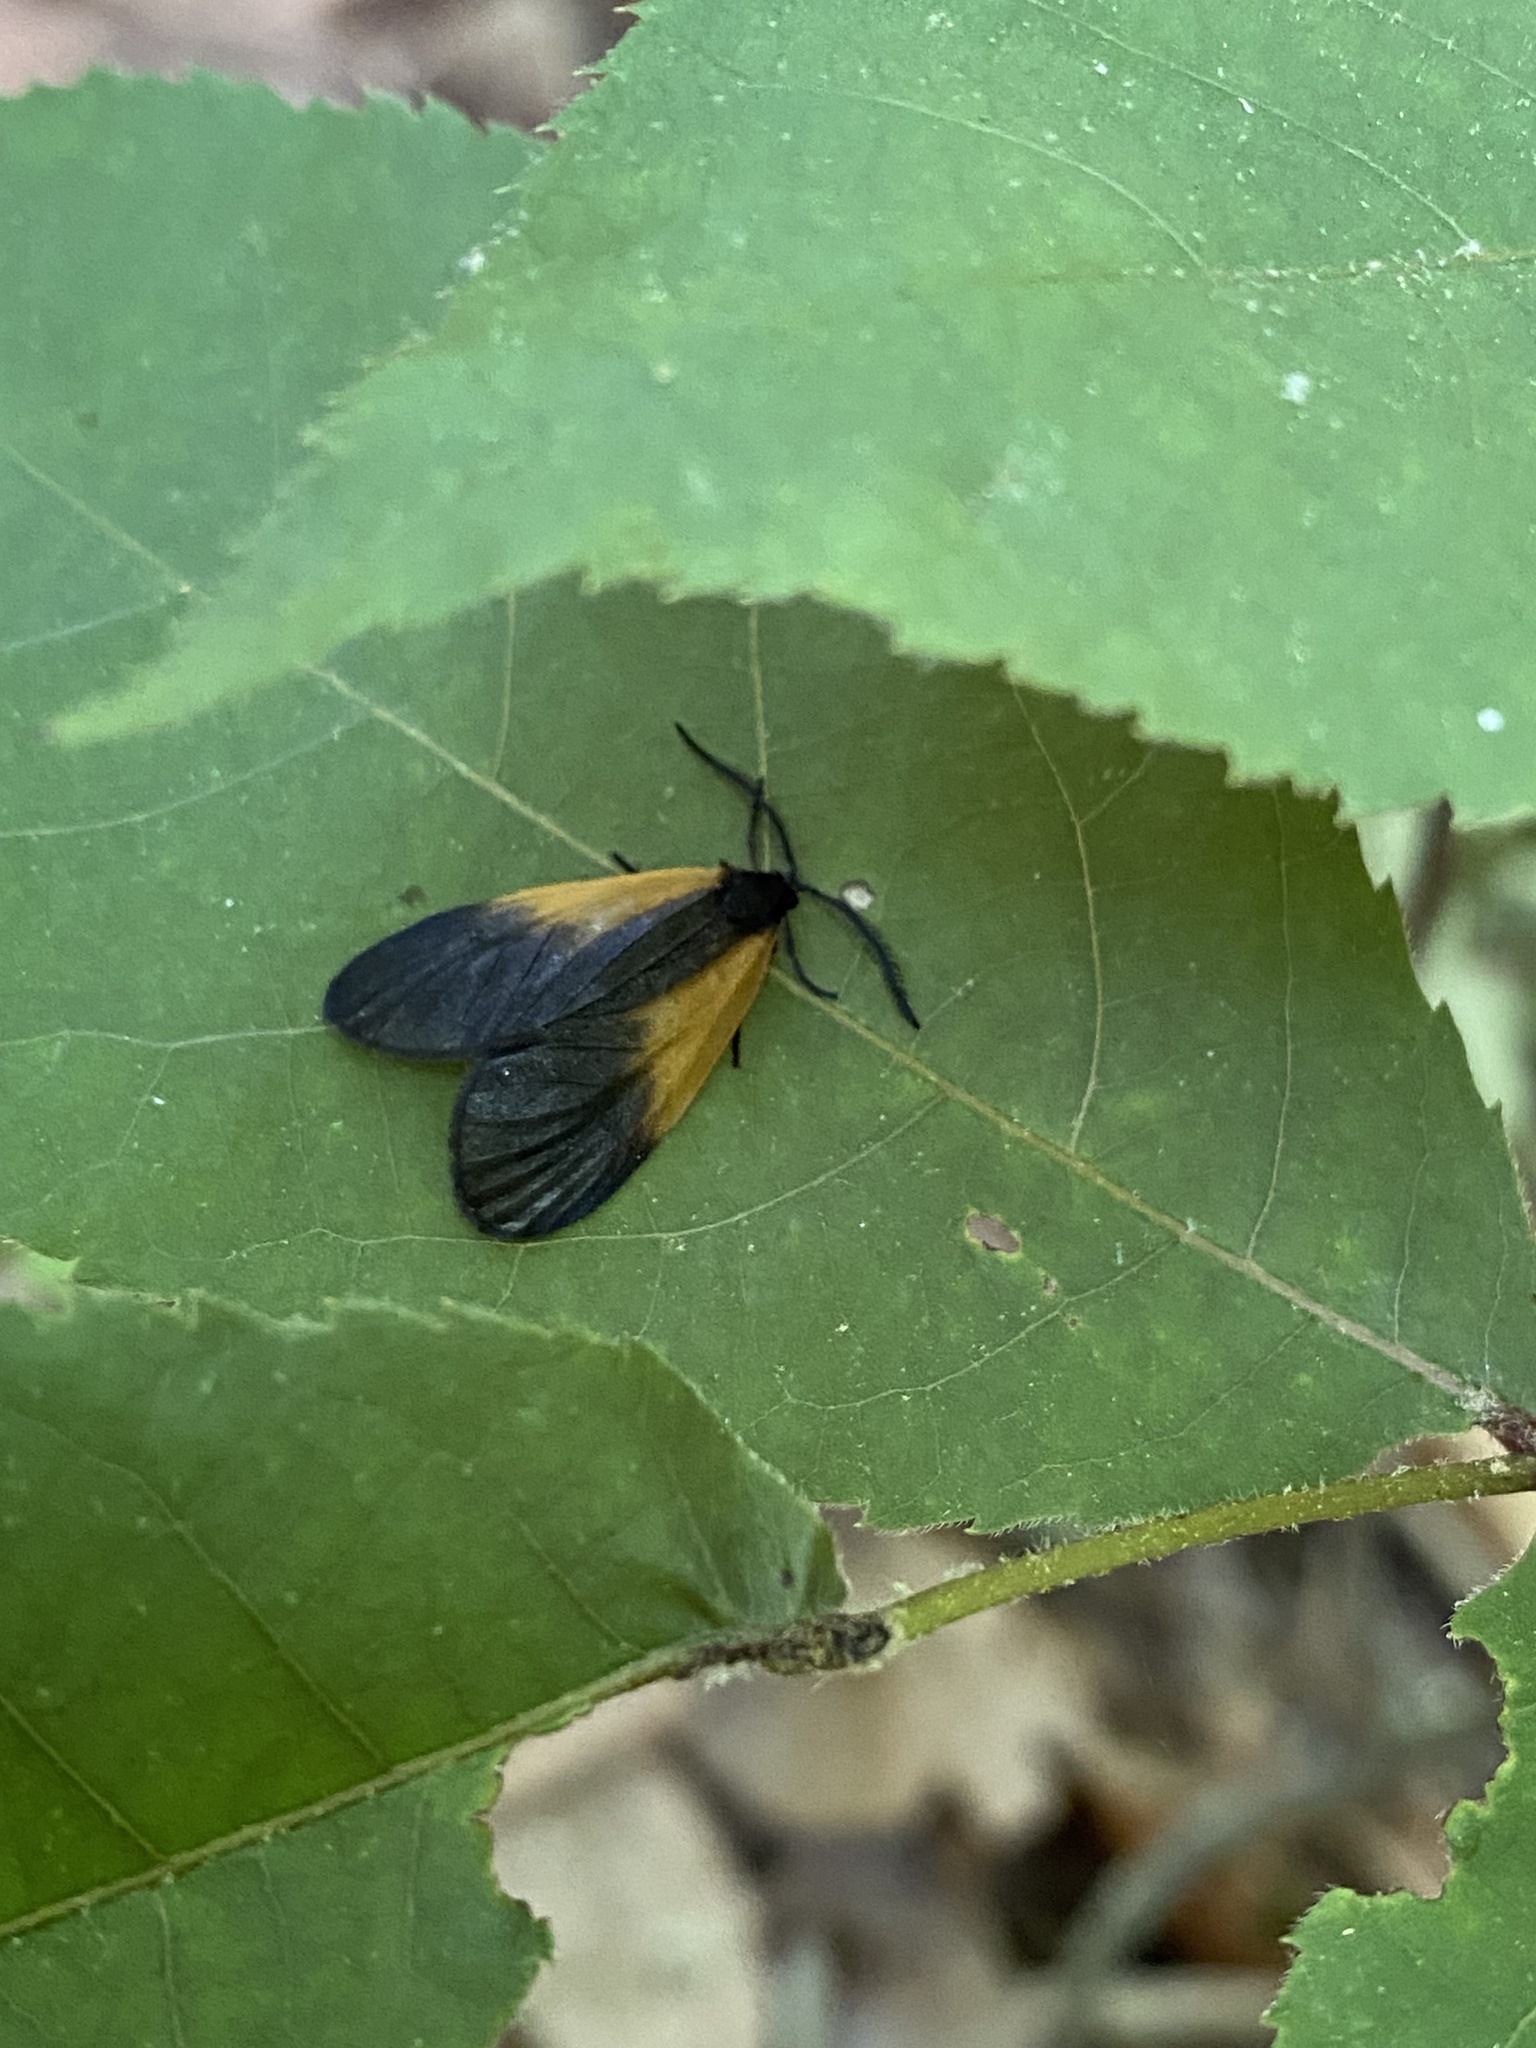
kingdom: Animalia
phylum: Arthropoda
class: Insecta
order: Lepidoptera
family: Zygaenidae
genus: Malthaca
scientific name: Malthaca dimidiata
